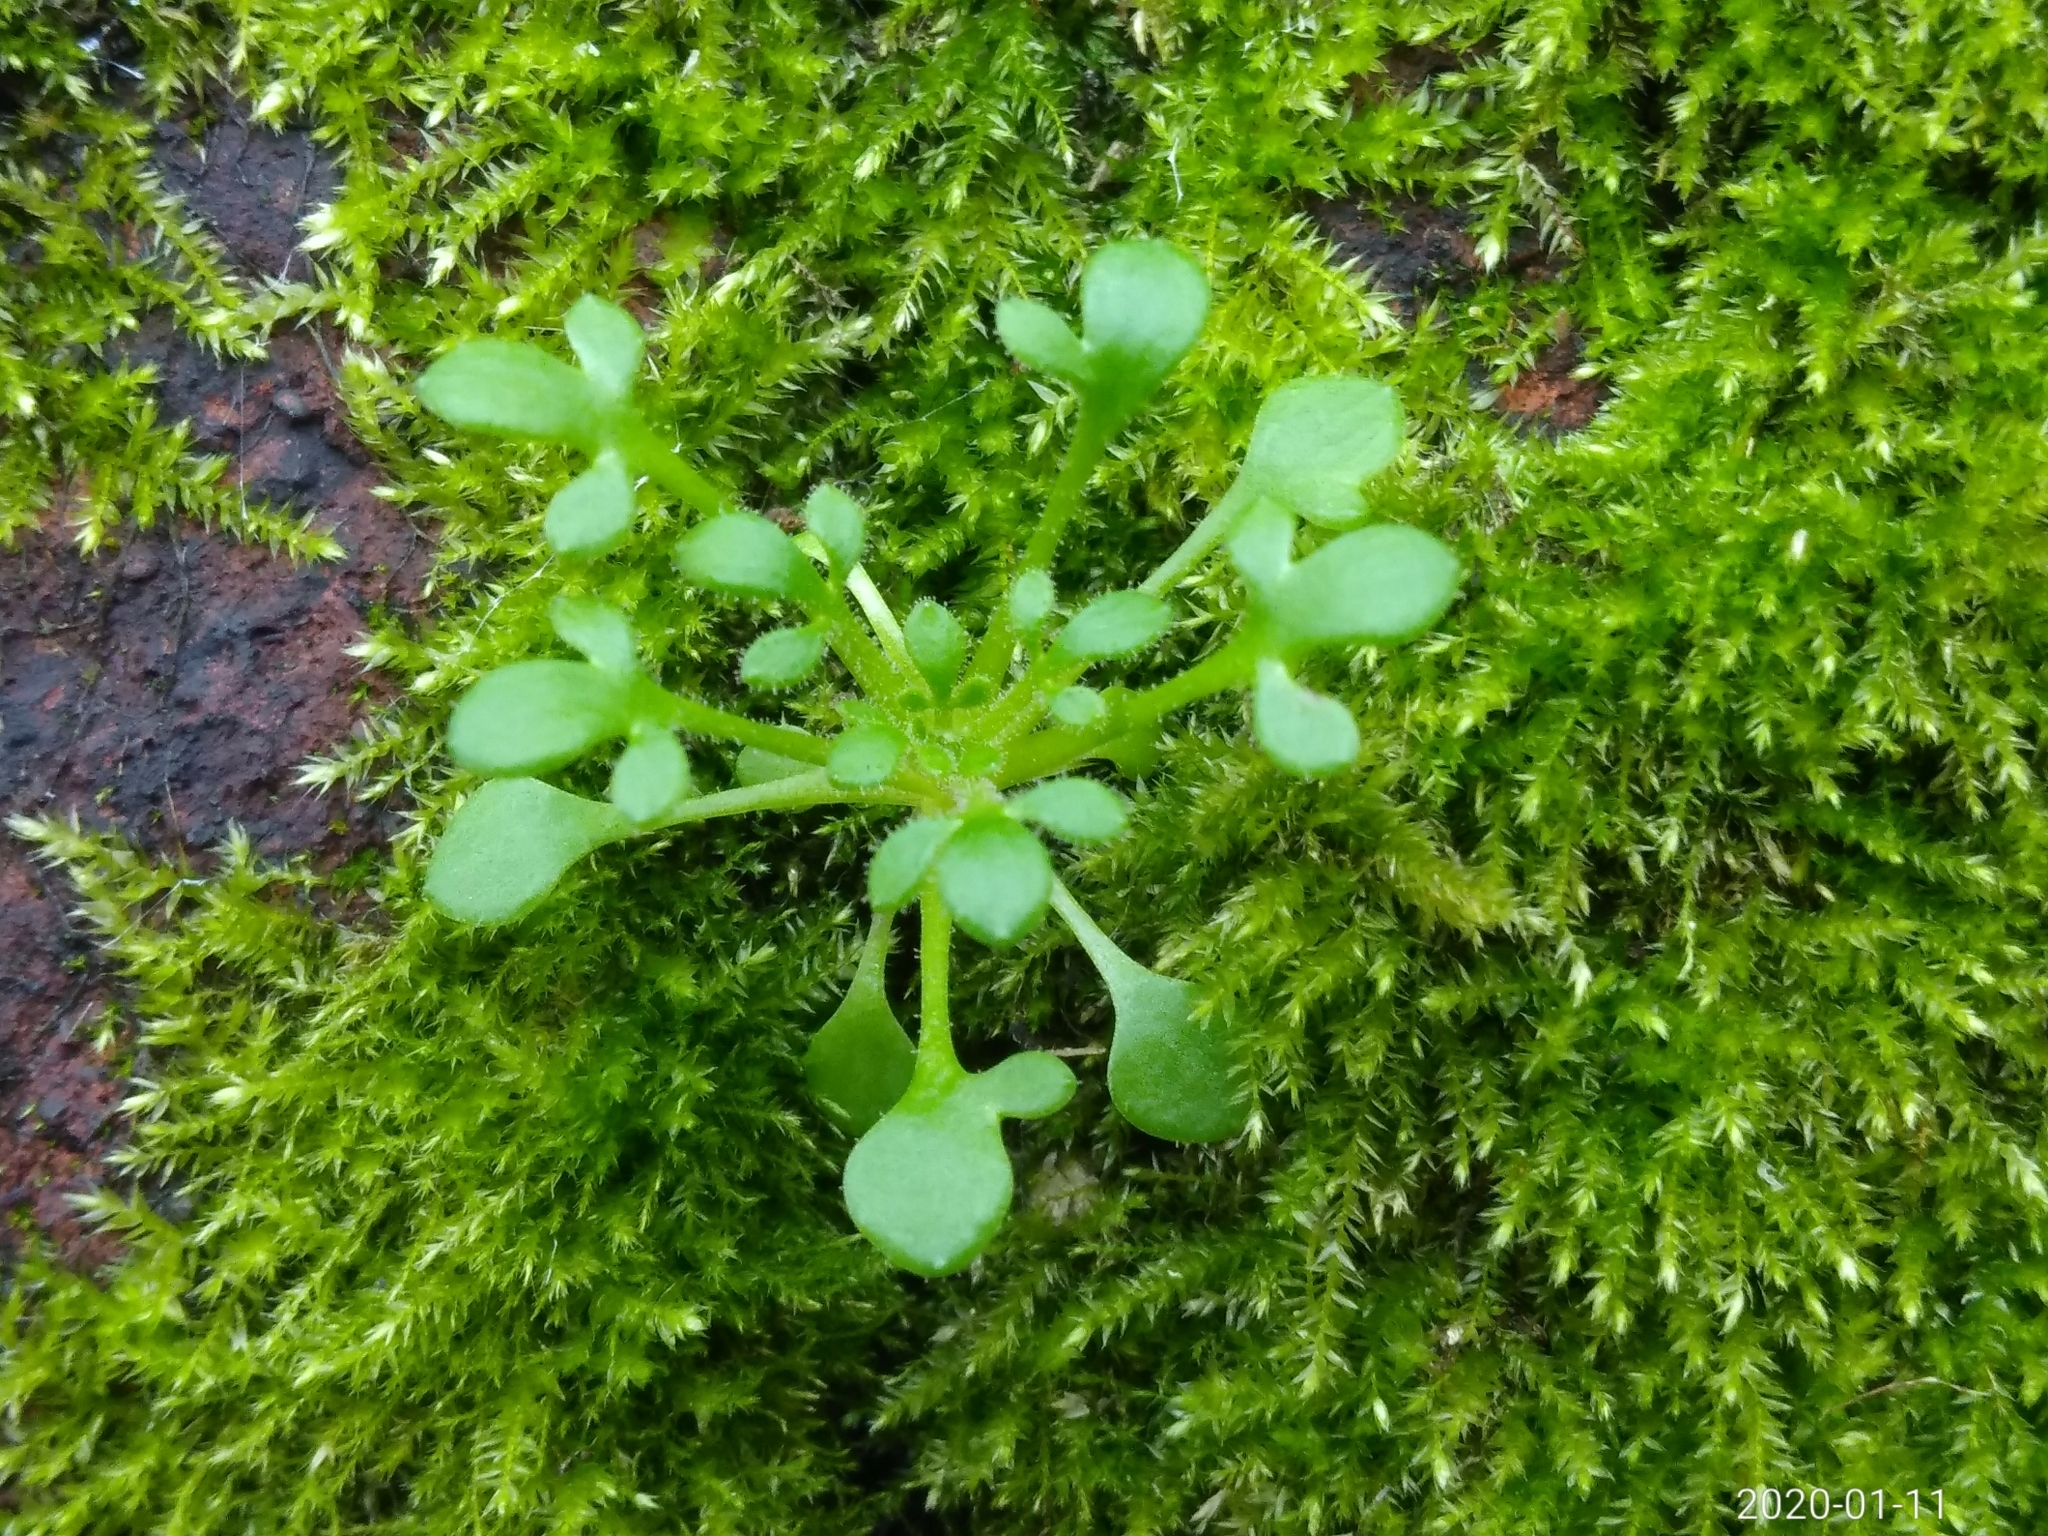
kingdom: Plantae
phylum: Tracheophyta
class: Magnoliopsida
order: Saxifragales
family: Saxifragaceae
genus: Saxifraga
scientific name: Saxifraga tridactylites
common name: Rue-leaved saxifrage
